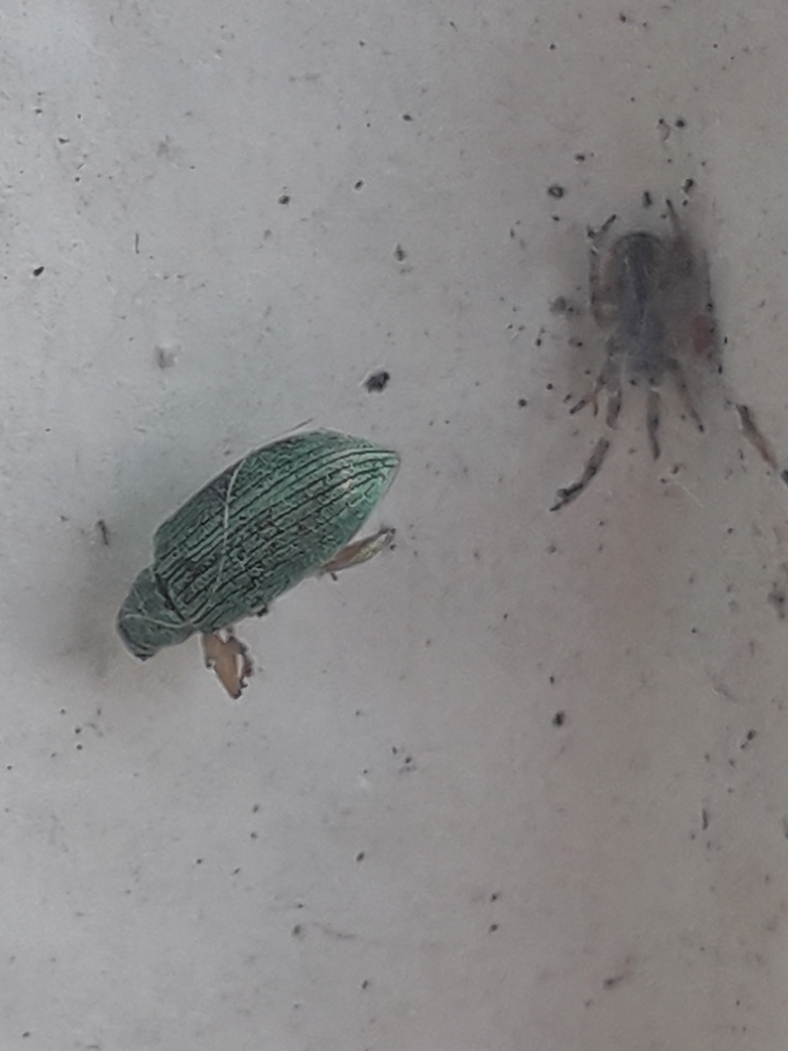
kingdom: Animalia
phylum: Arthropoda
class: Insecta
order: Coleoptera
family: Curculionidae
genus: Polydrusus
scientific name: Polydrusus formosus
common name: Weevil
